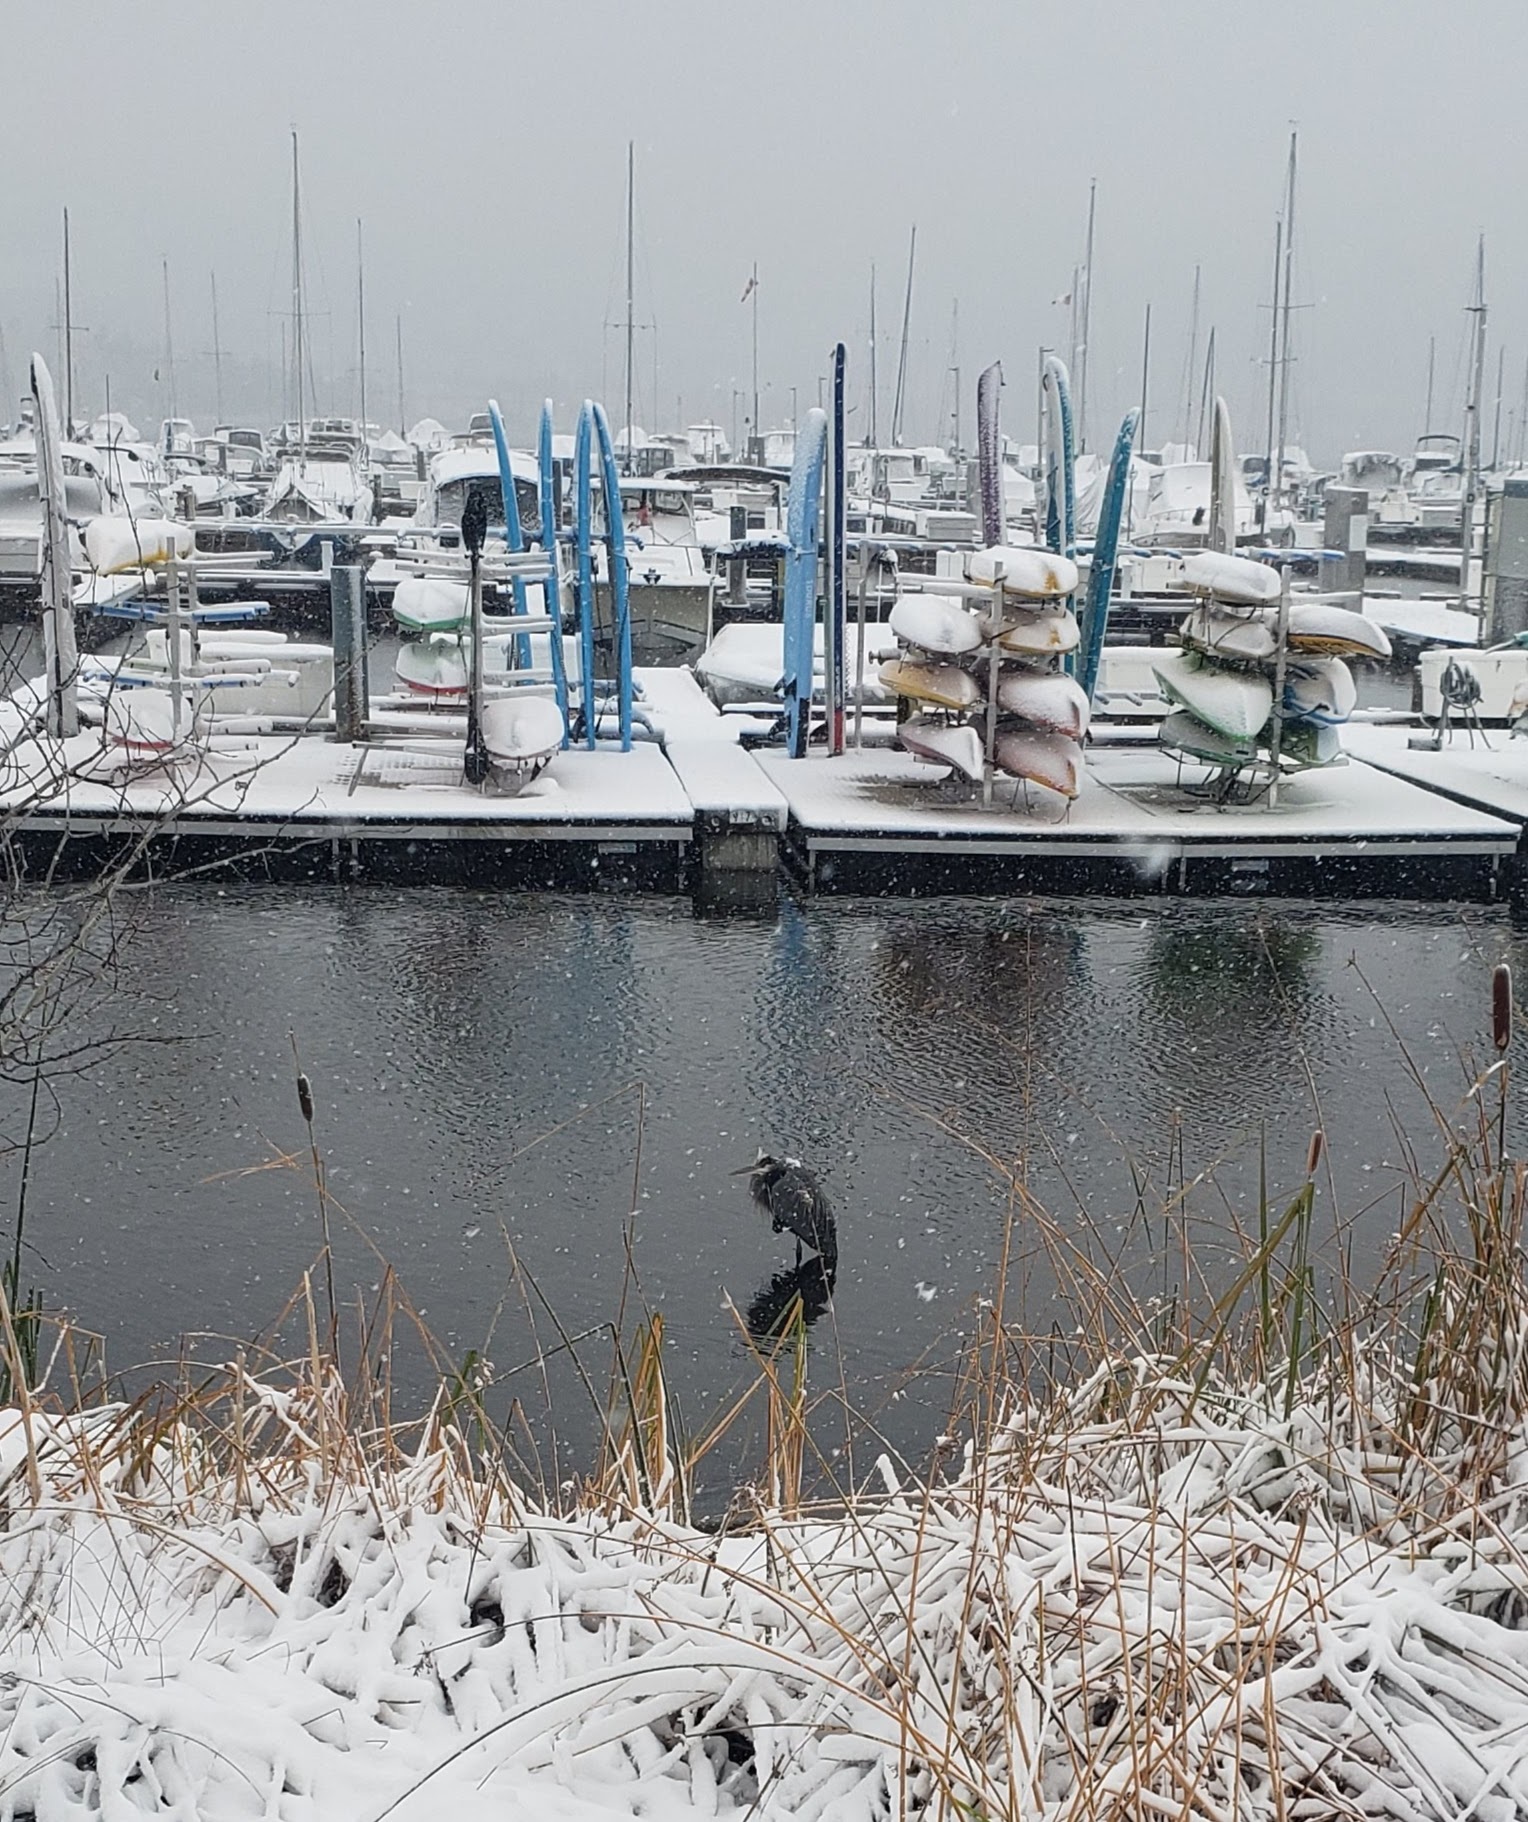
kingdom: Animalia
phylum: Chordata
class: Aves
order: Pelecaniformes
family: Ardeidae
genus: Ardea
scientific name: Ardea herodias
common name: Great blue heron
